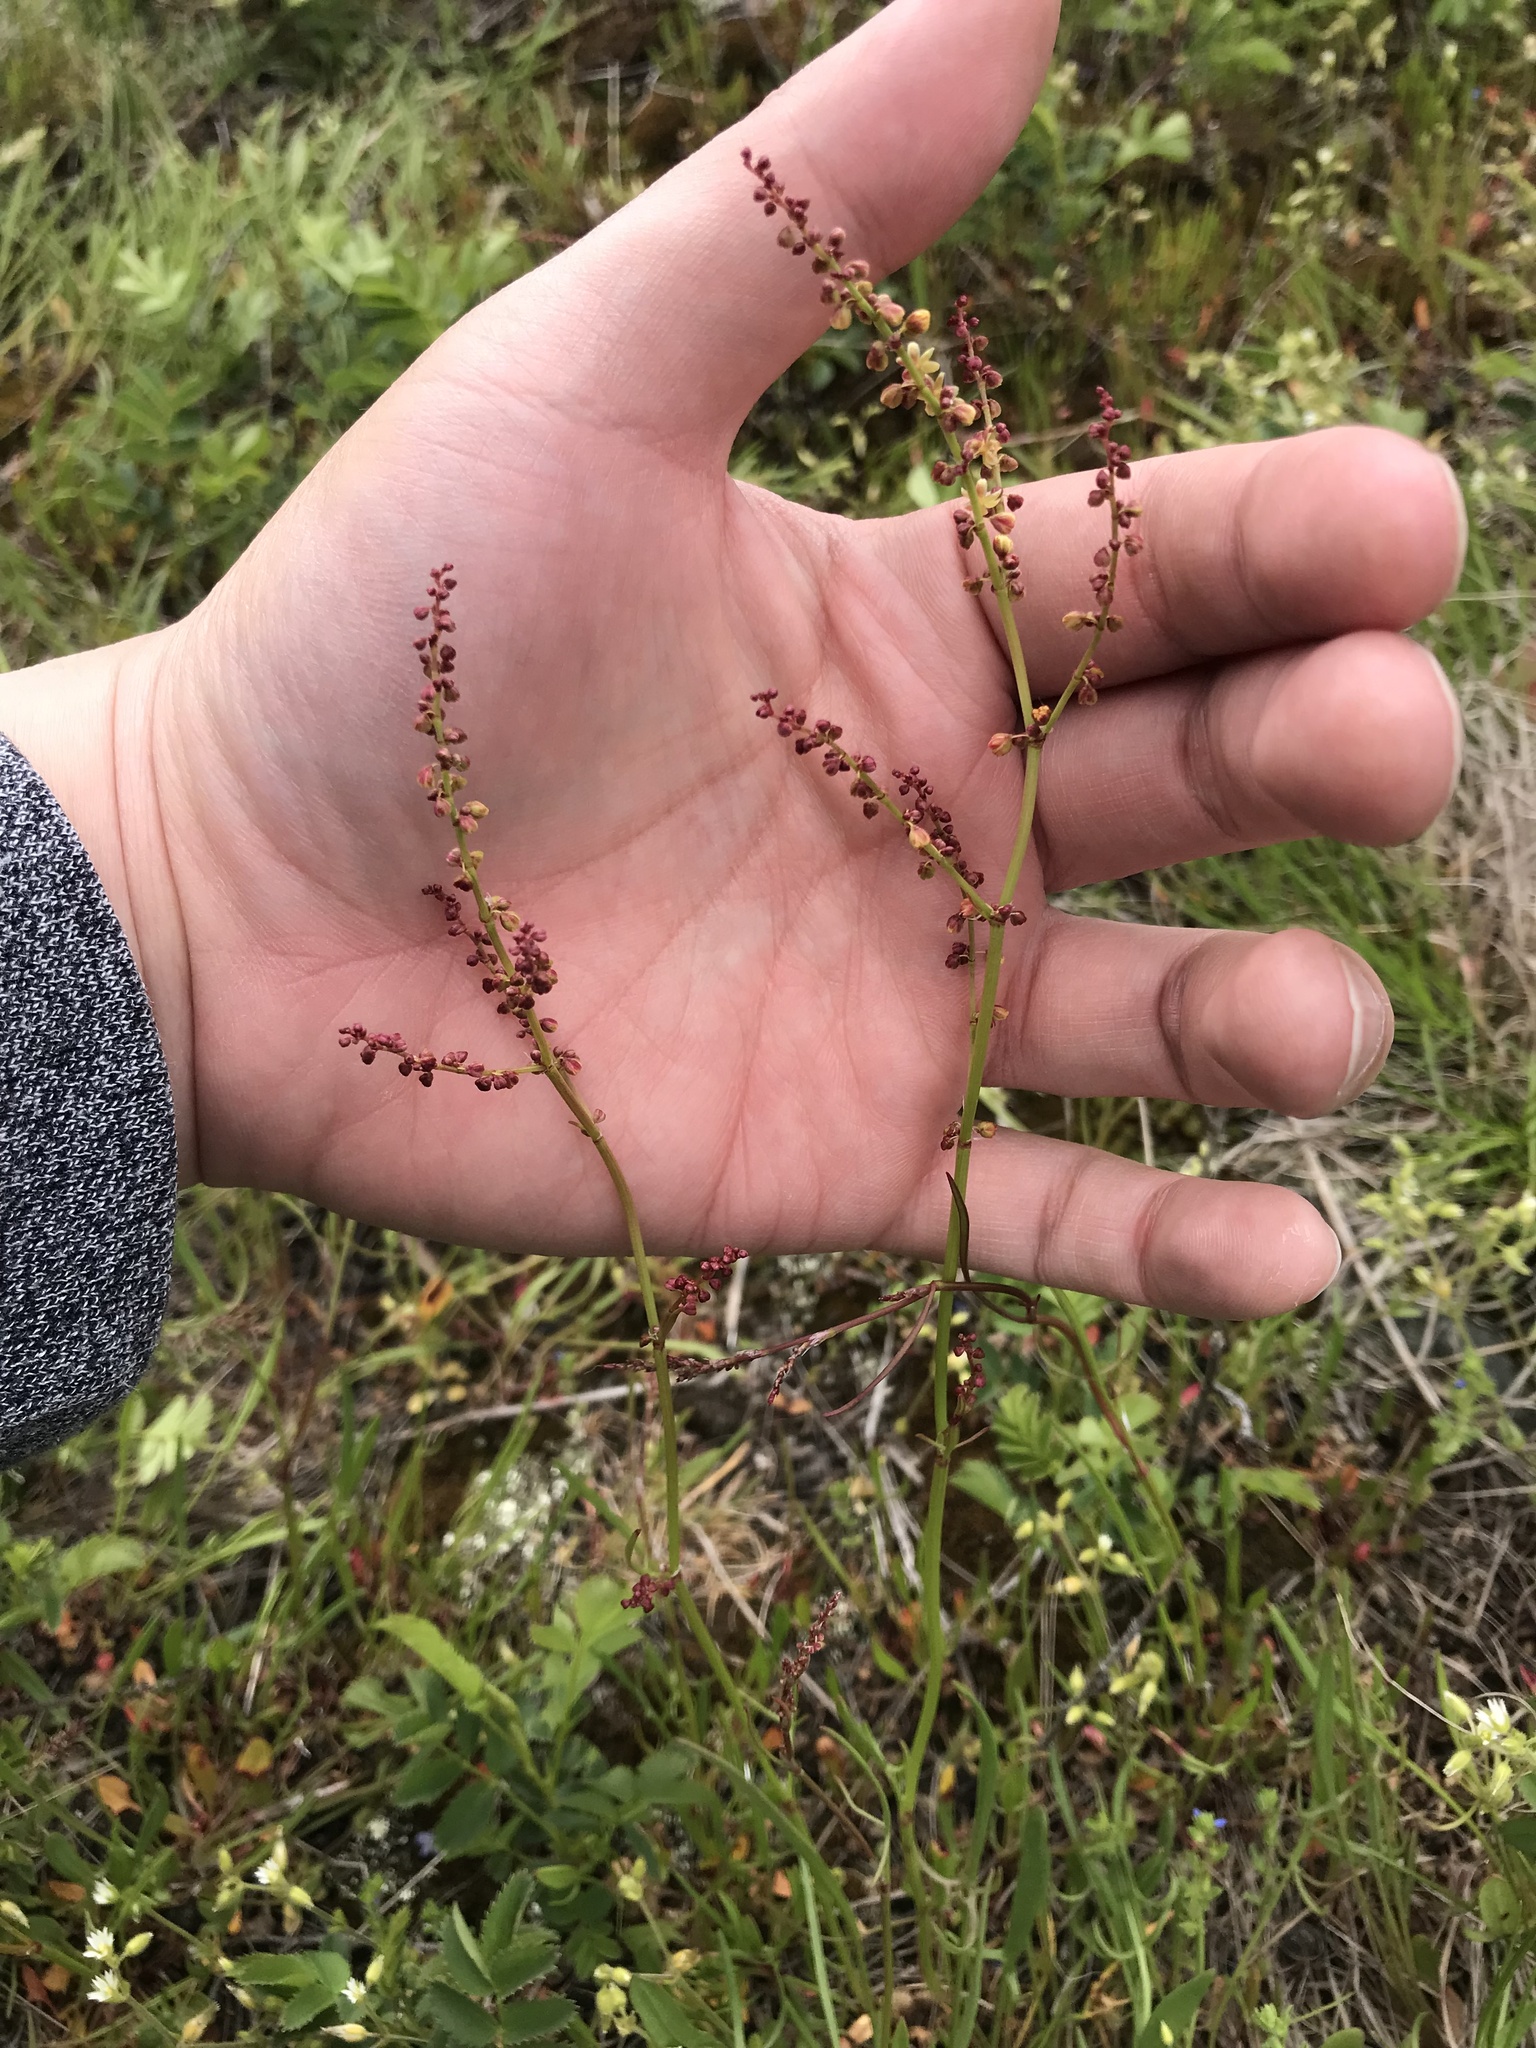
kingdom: Plantae
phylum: Tracheophyta
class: Magnoliopsida
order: Caryophyllales
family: Polygonaceae
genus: Rumex
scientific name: Rumex acetosella
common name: Common sheep sorrel
